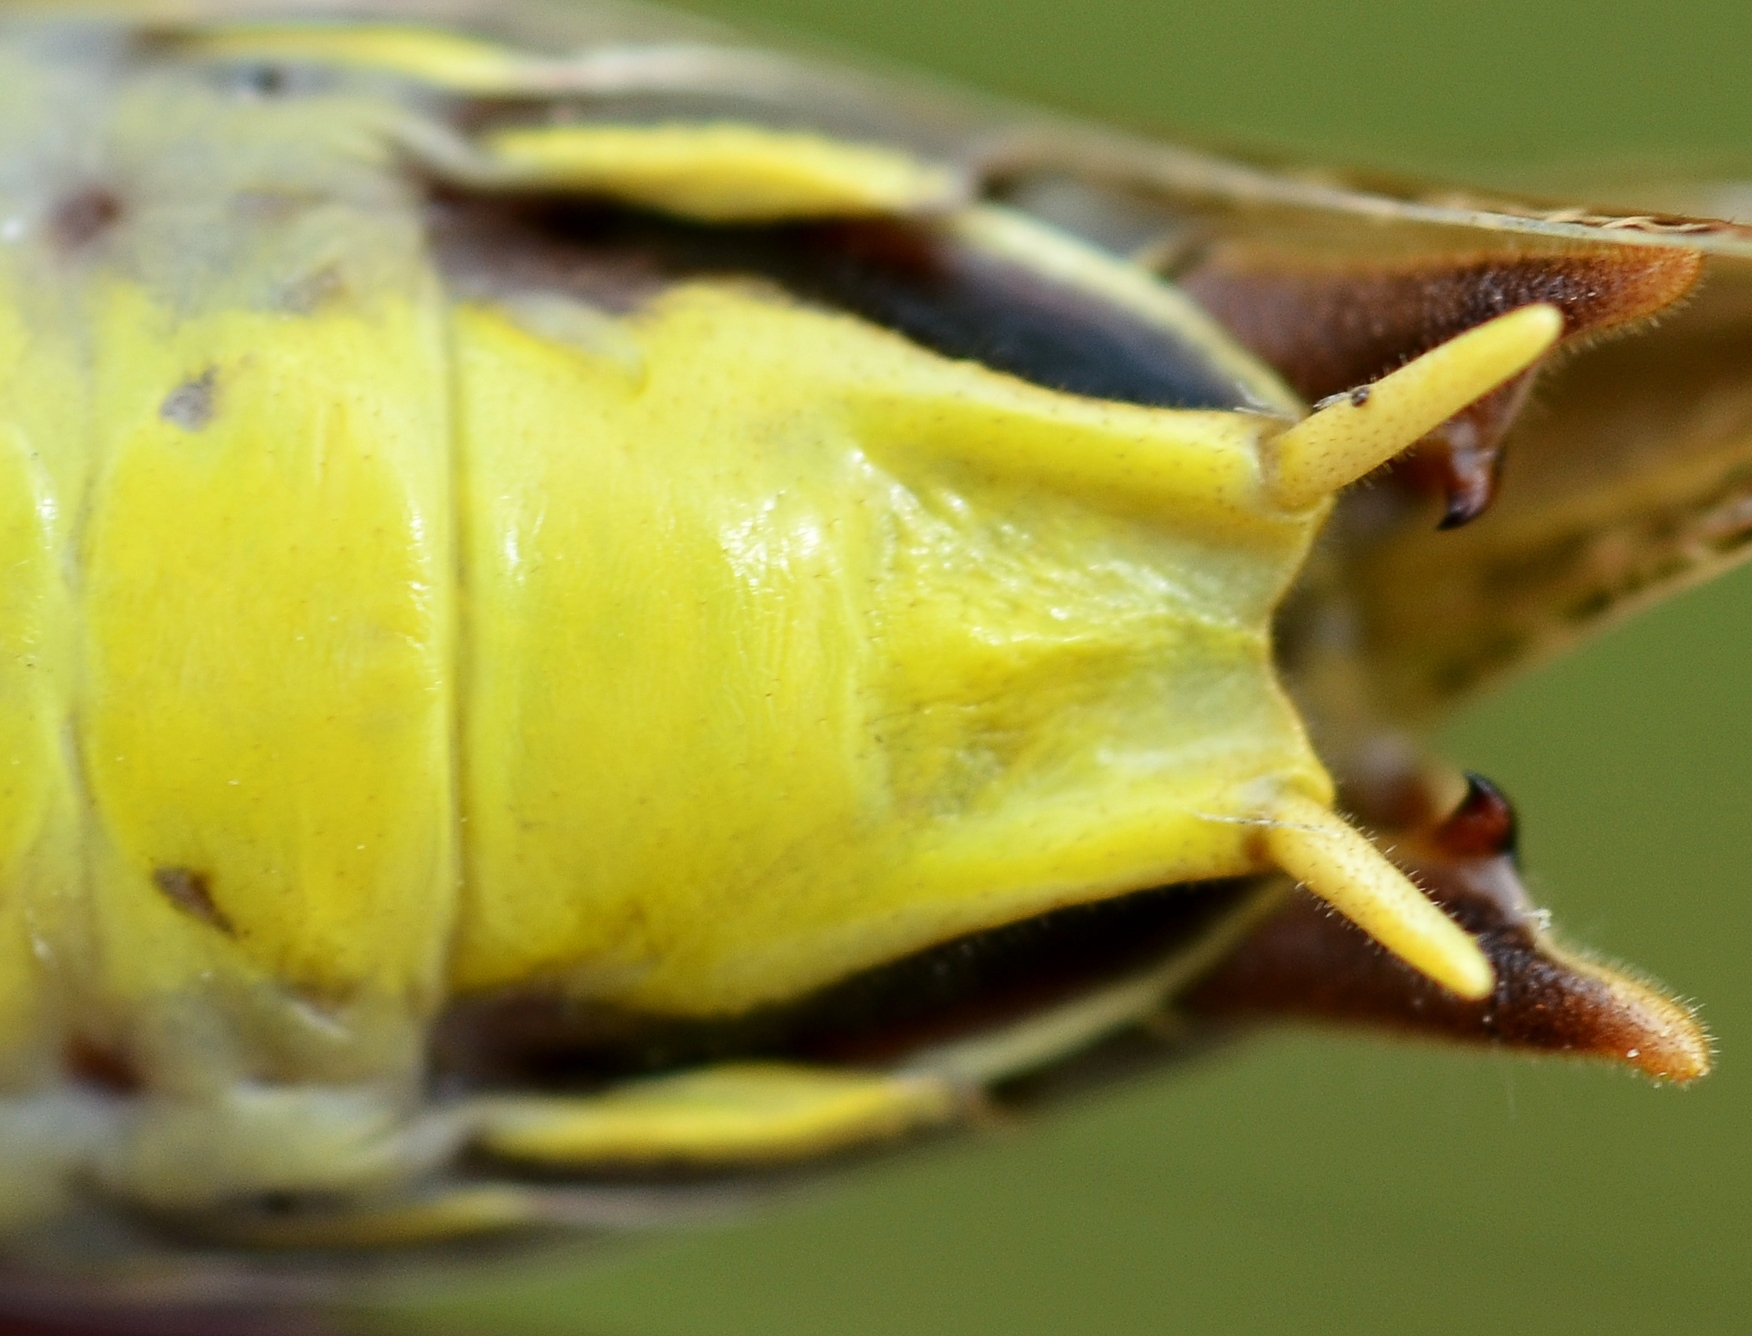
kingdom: Animalia
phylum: Arthropoda
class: Insecta
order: Orthoptera
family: Tettigoniidae
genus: Decticus
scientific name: Decticus verrucivorus
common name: Wart-biter
